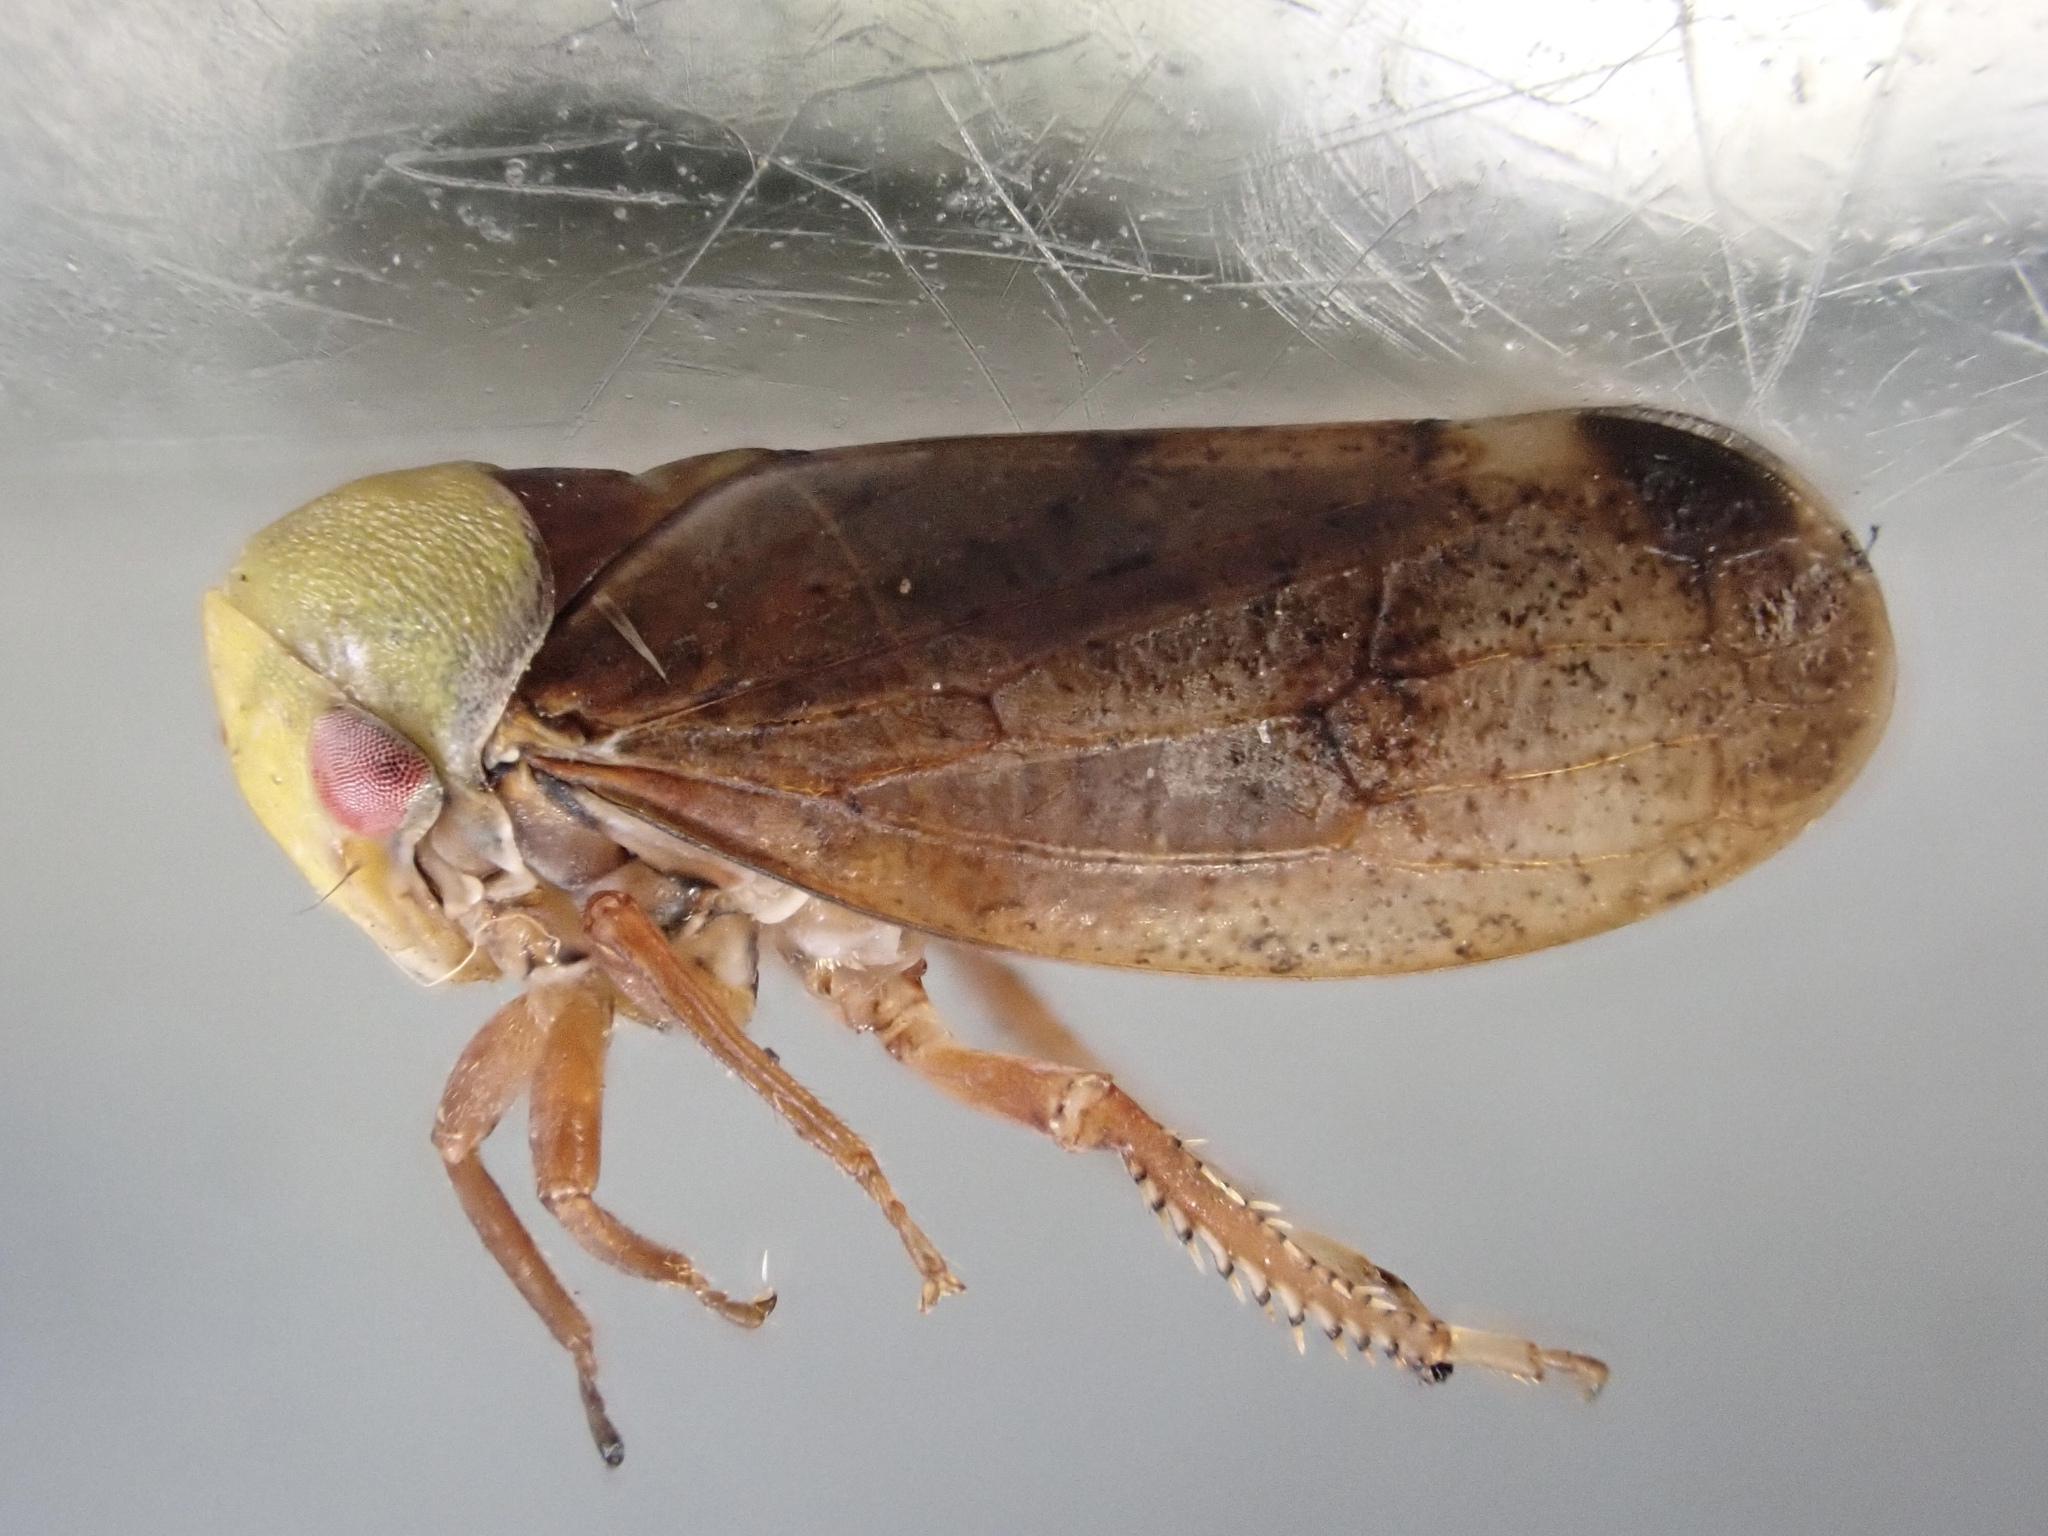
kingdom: Animalia
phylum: Arthropoda
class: Insecta
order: Hemiptera
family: Cicadellidae
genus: Pediopsis
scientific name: Pediopsis tiliae
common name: Leafhopper
